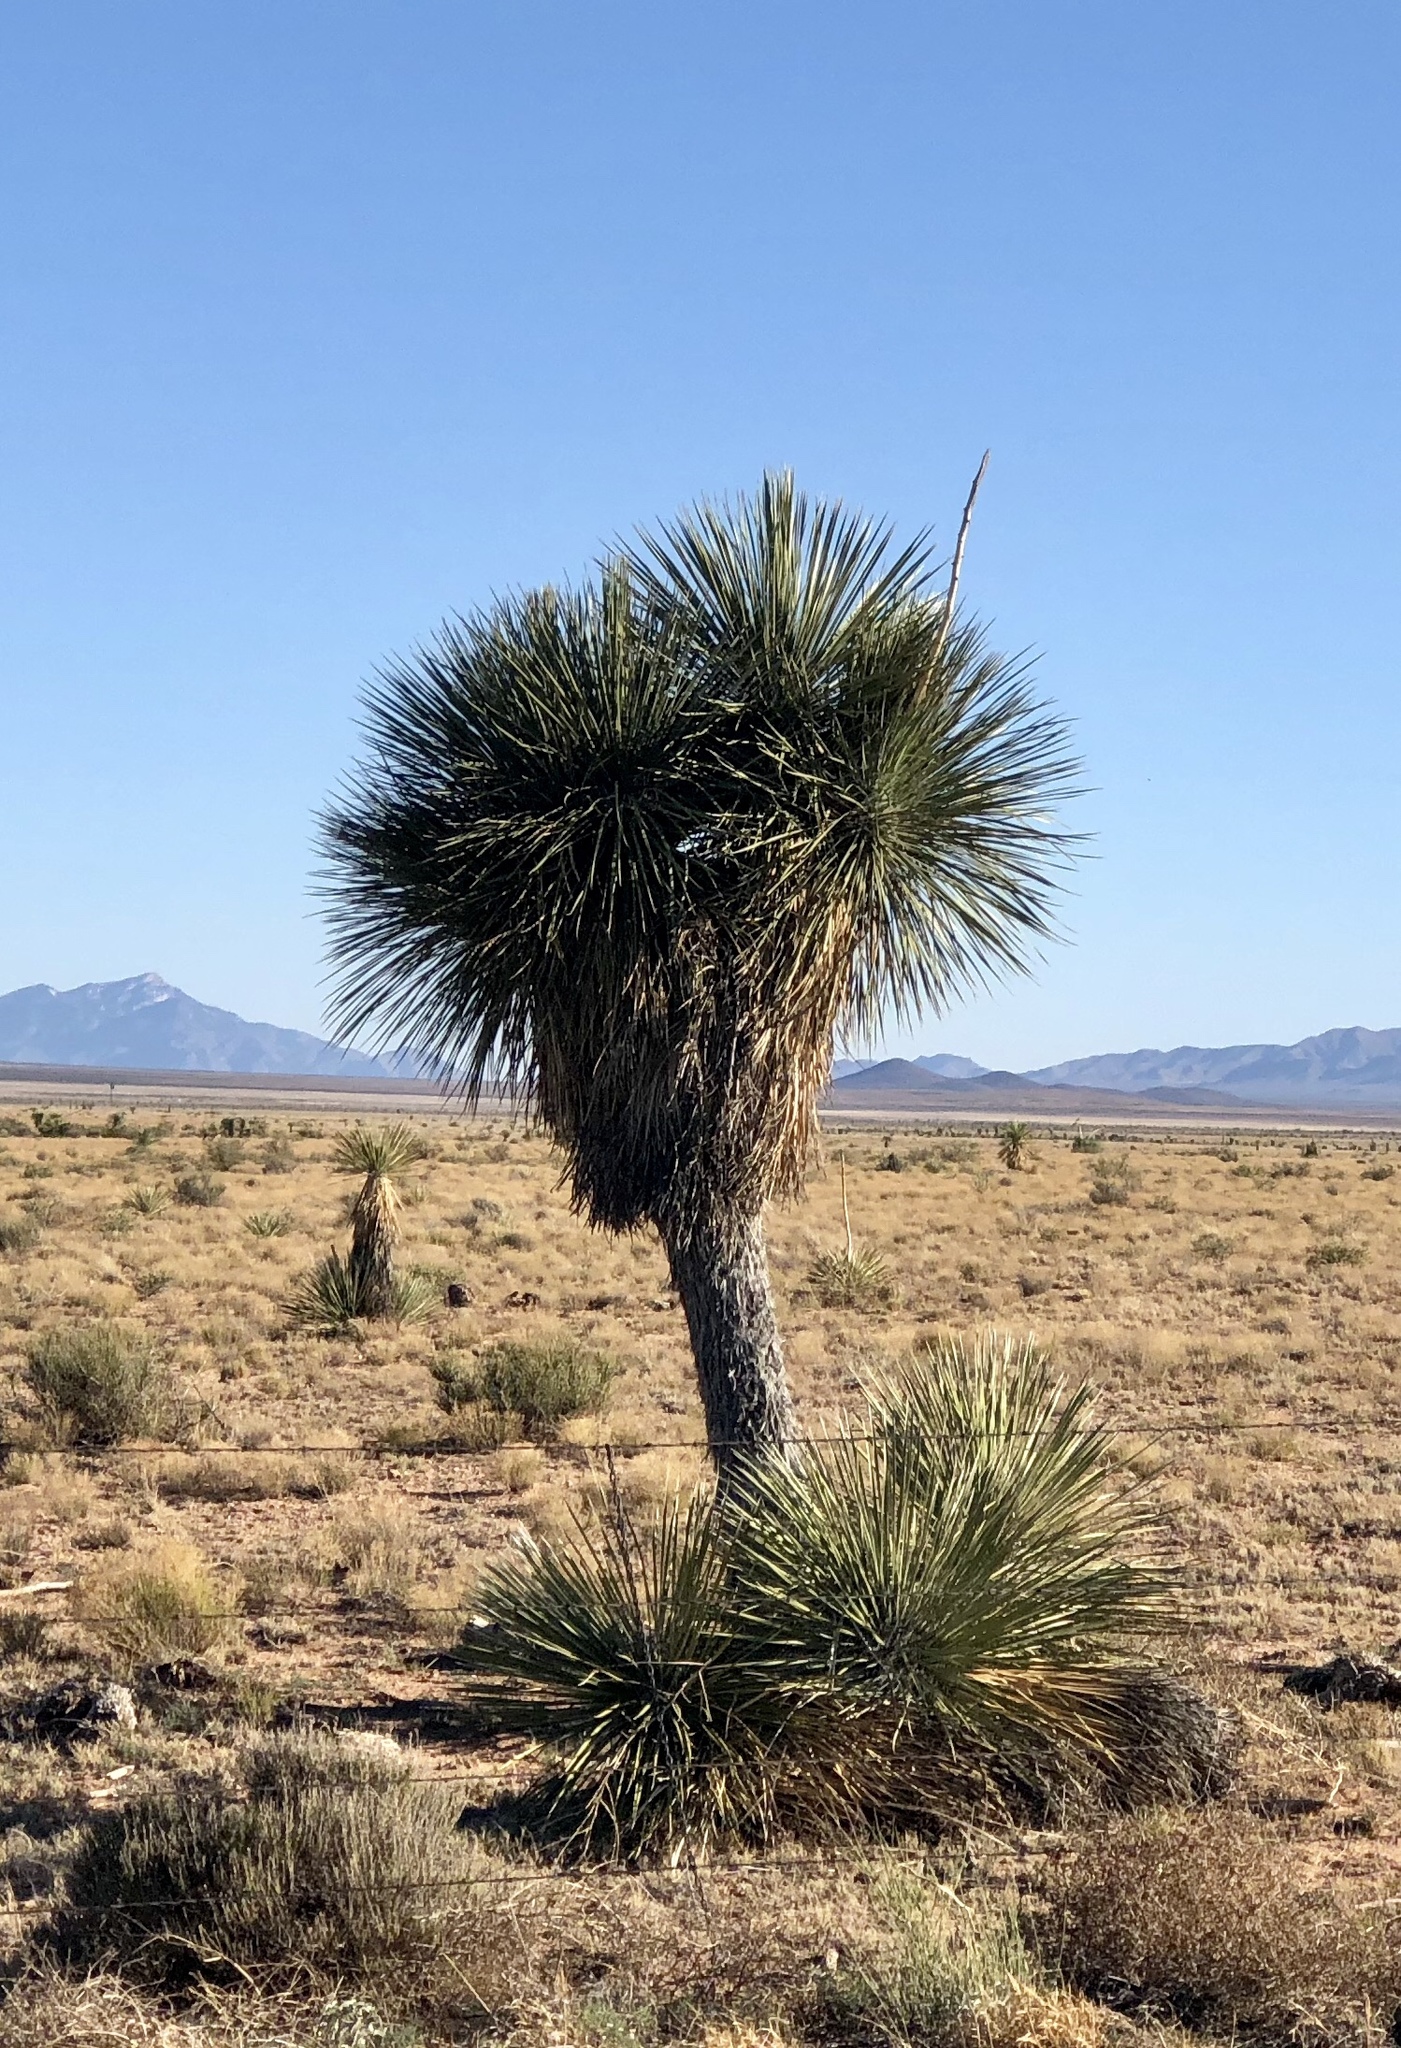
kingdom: Plantae
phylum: Tracheophyta
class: Liliopsida
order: Asparagales
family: Asparagaceae
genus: Yucca
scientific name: Yucca elata
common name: Palmella
